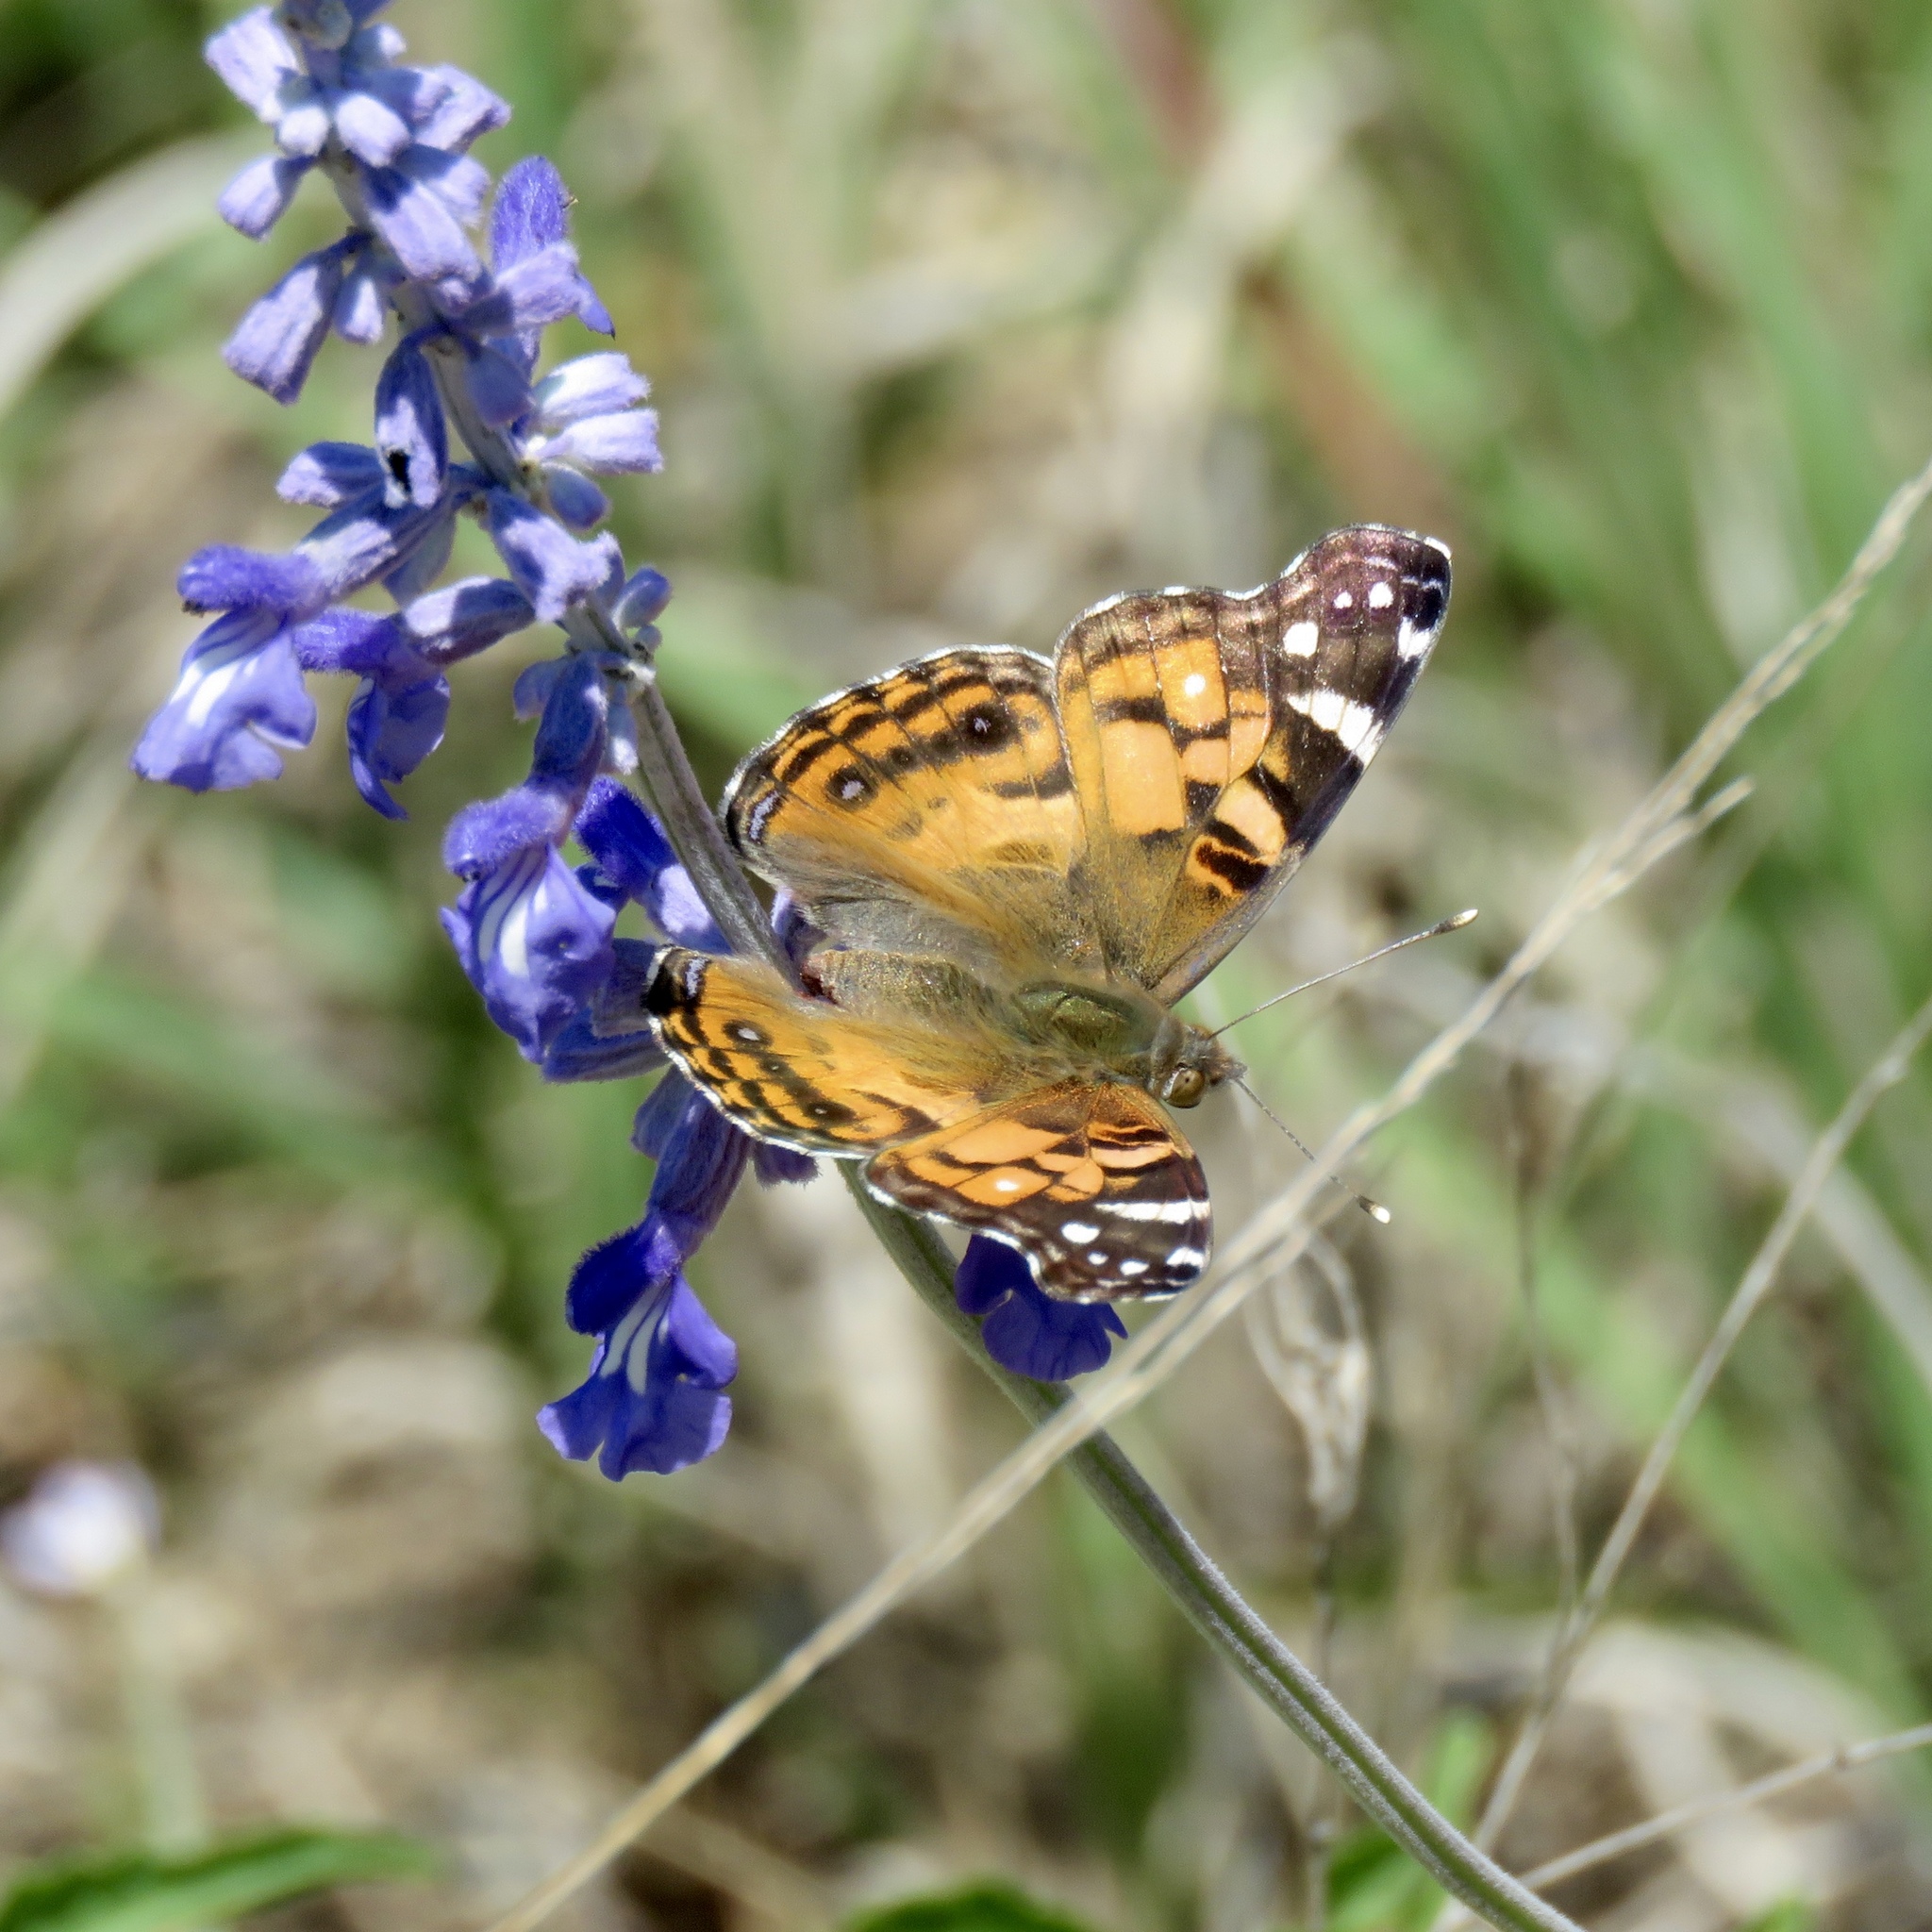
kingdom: Animalia
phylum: Arthropoda
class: Insecta
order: Lepidoptera
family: Nymphalidae
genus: Vanessa
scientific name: Vanessa virginiensis
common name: American lady
